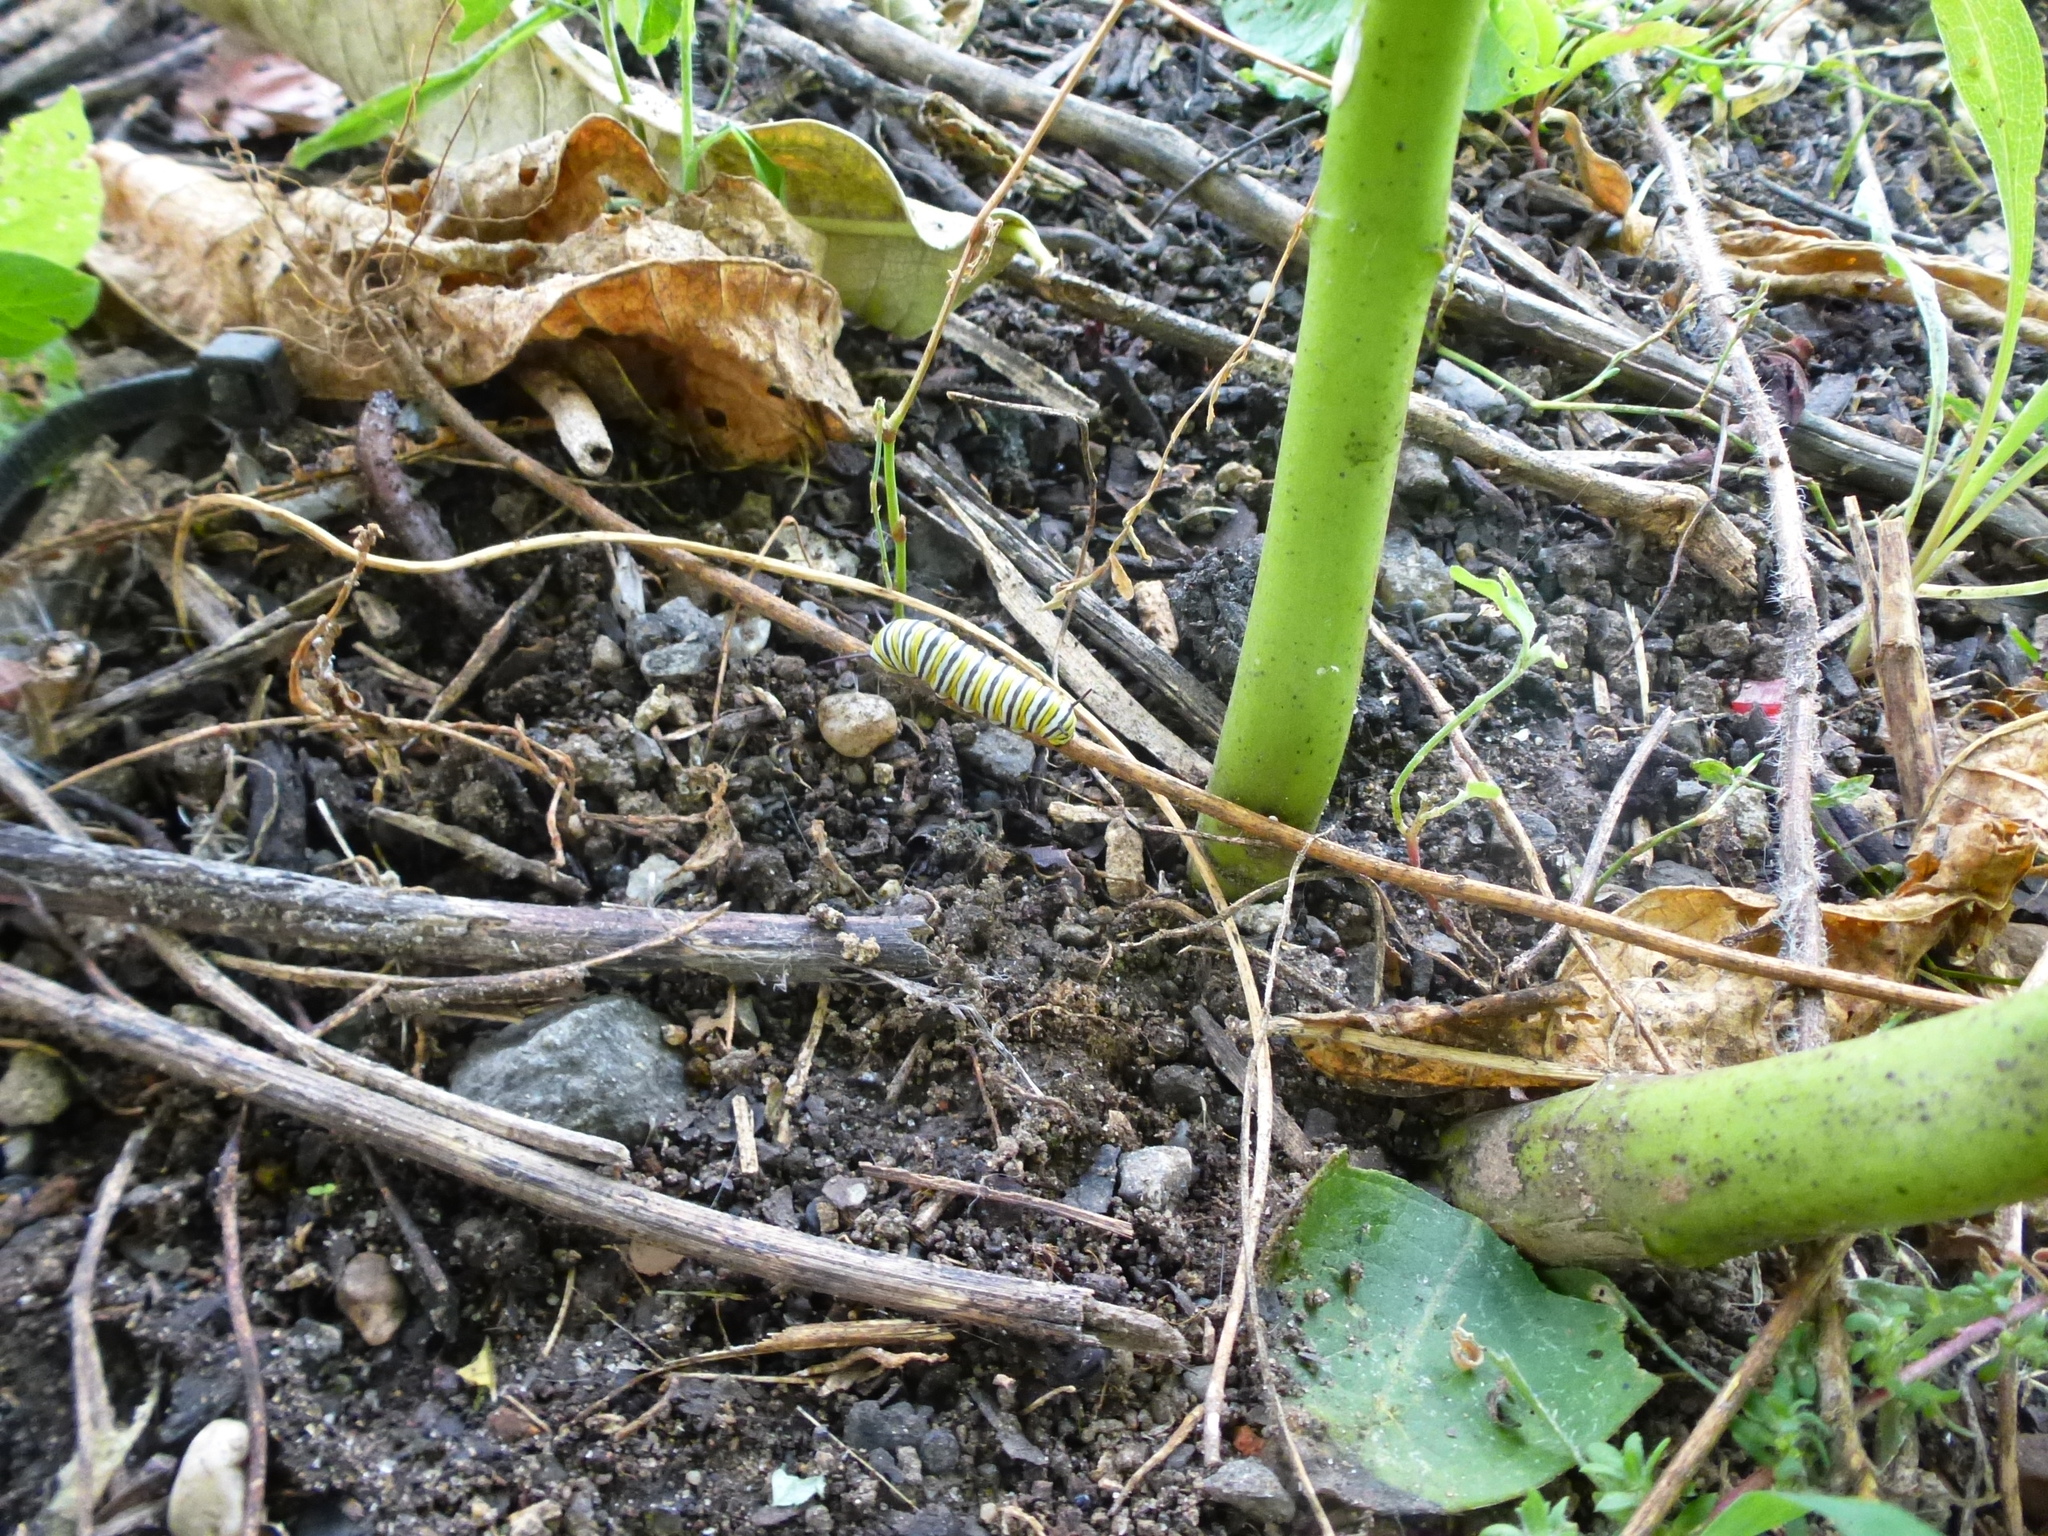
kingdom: Animalia
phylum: Arthropoda
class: Insecta
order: Lepidoptera
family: Nymphalidae
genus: Danaus
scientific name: Danaus plexippus
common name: Monarch
